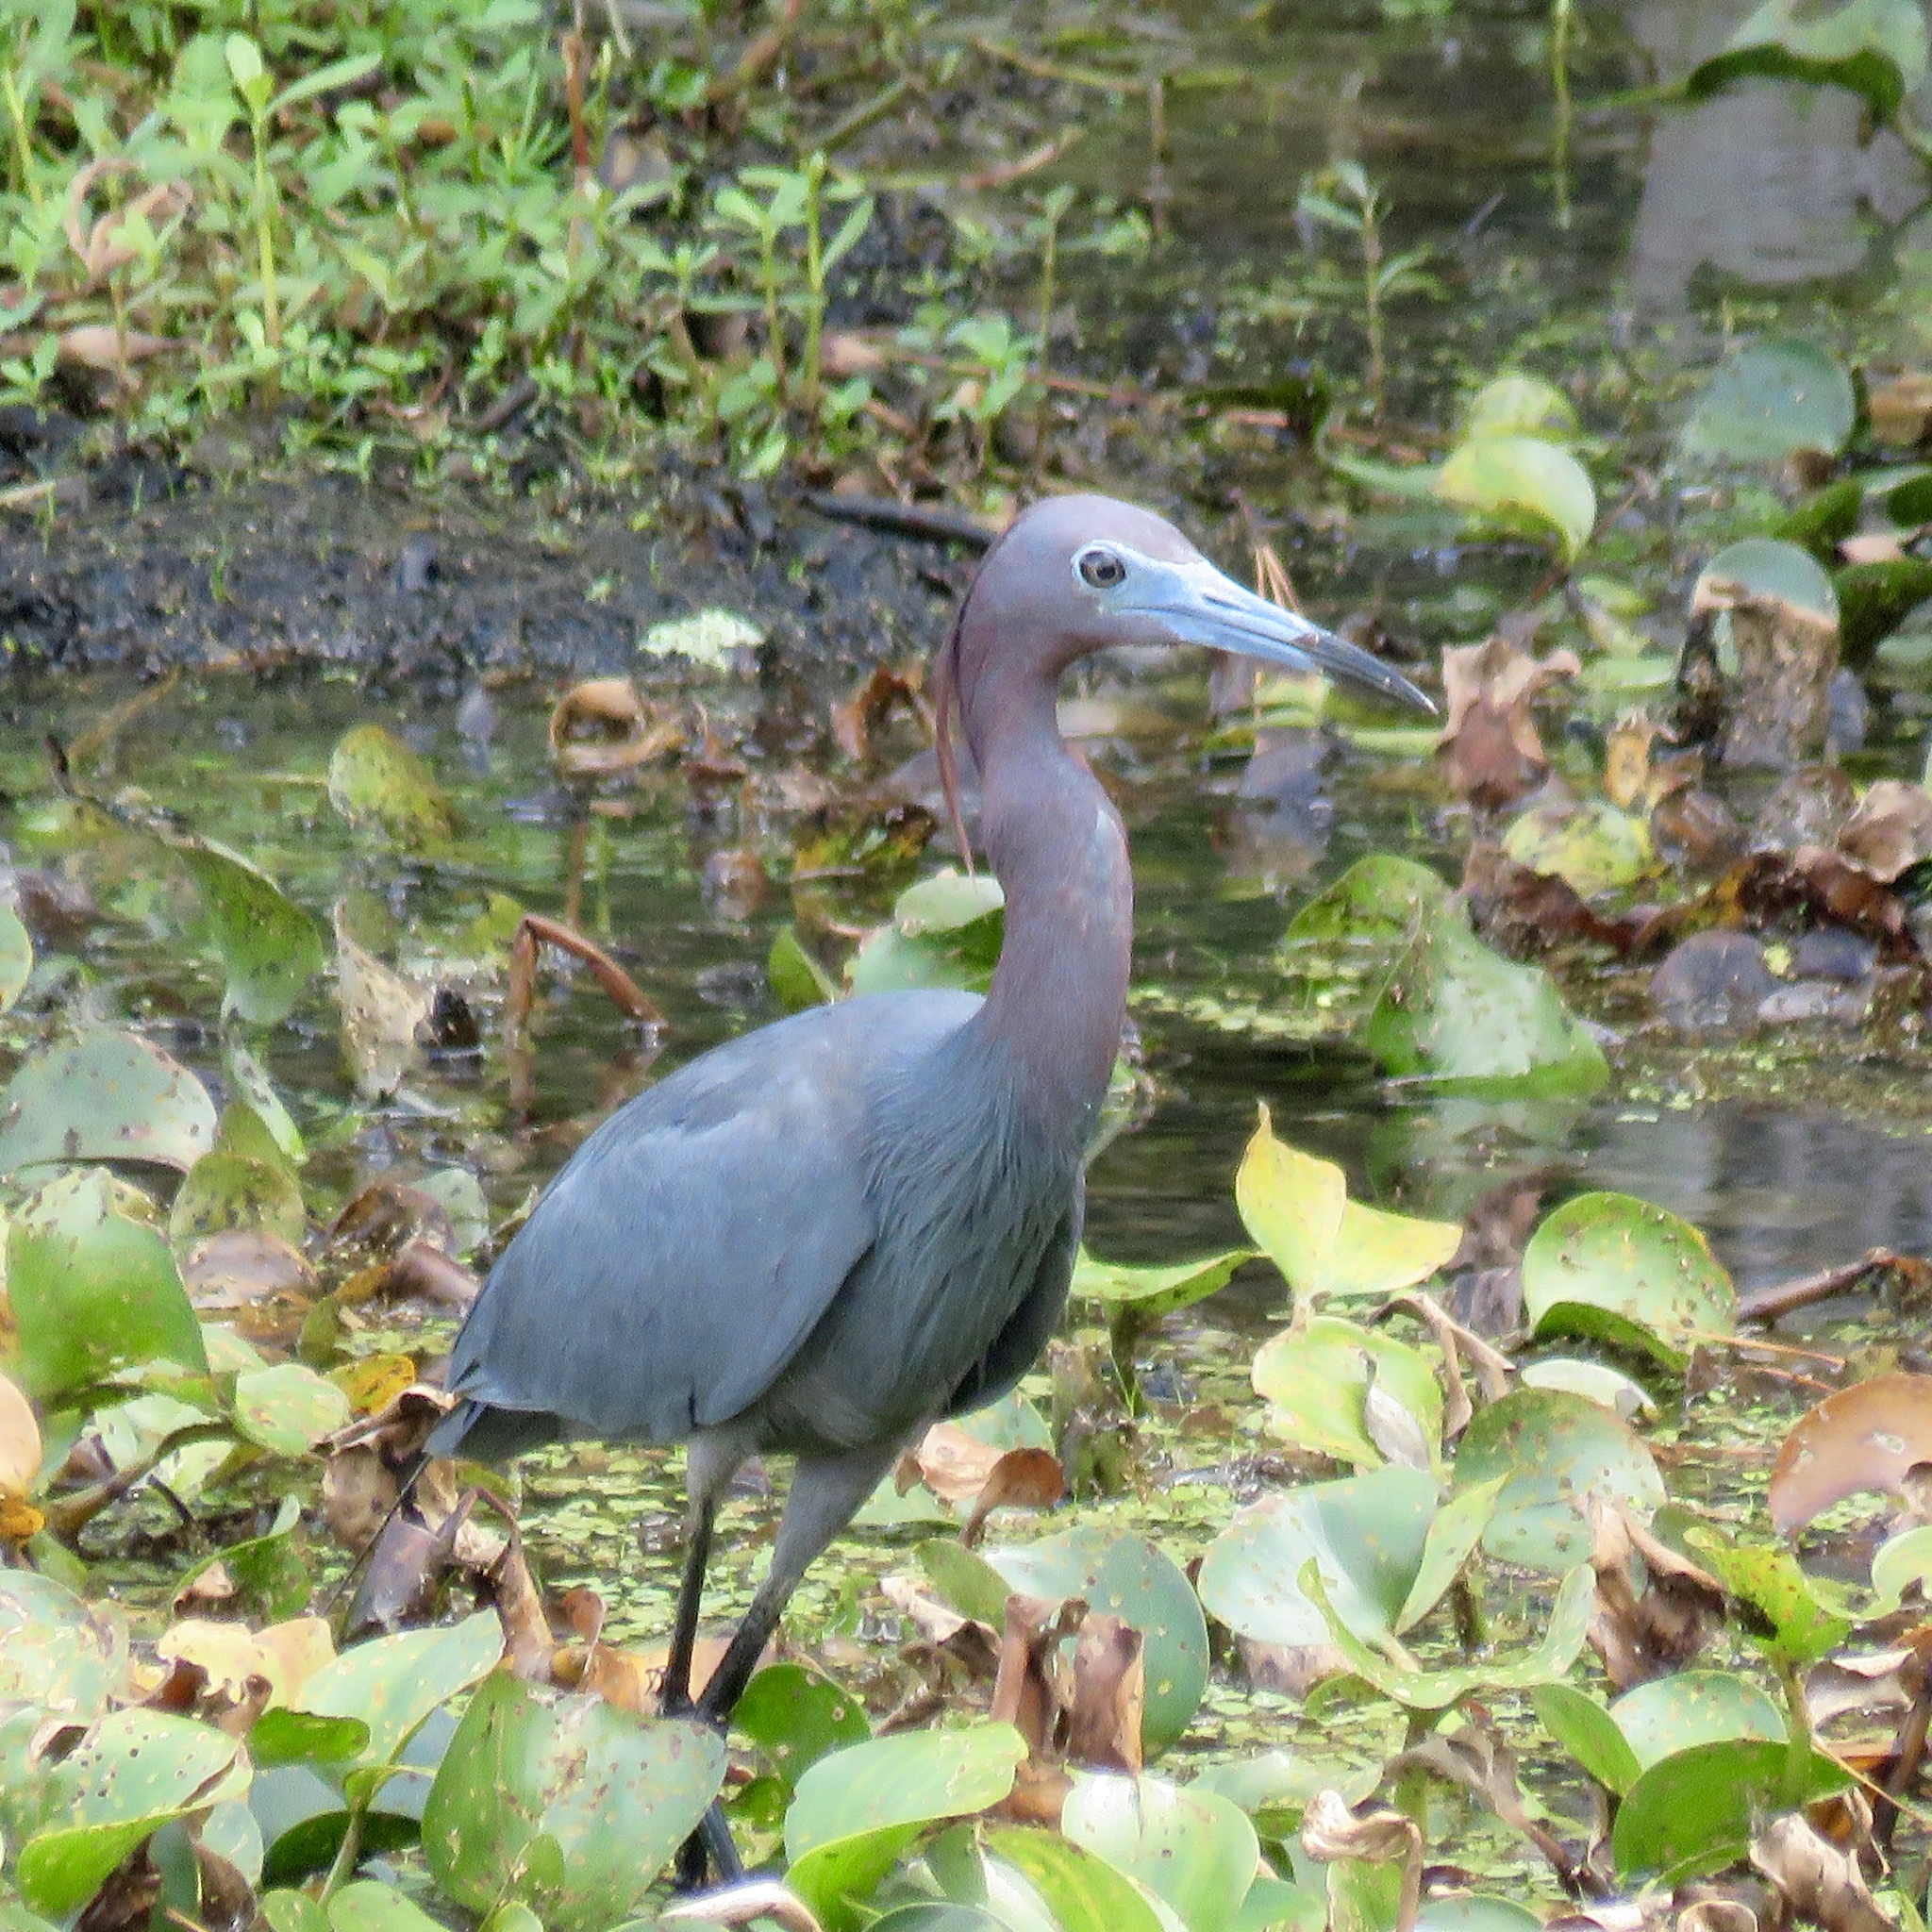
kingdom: Animalia
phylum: Chordata
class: Aves
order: Pelecaniformes
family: Ardeidae
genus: Egretta
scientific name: Egretta caerulea
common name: Little blue heron
